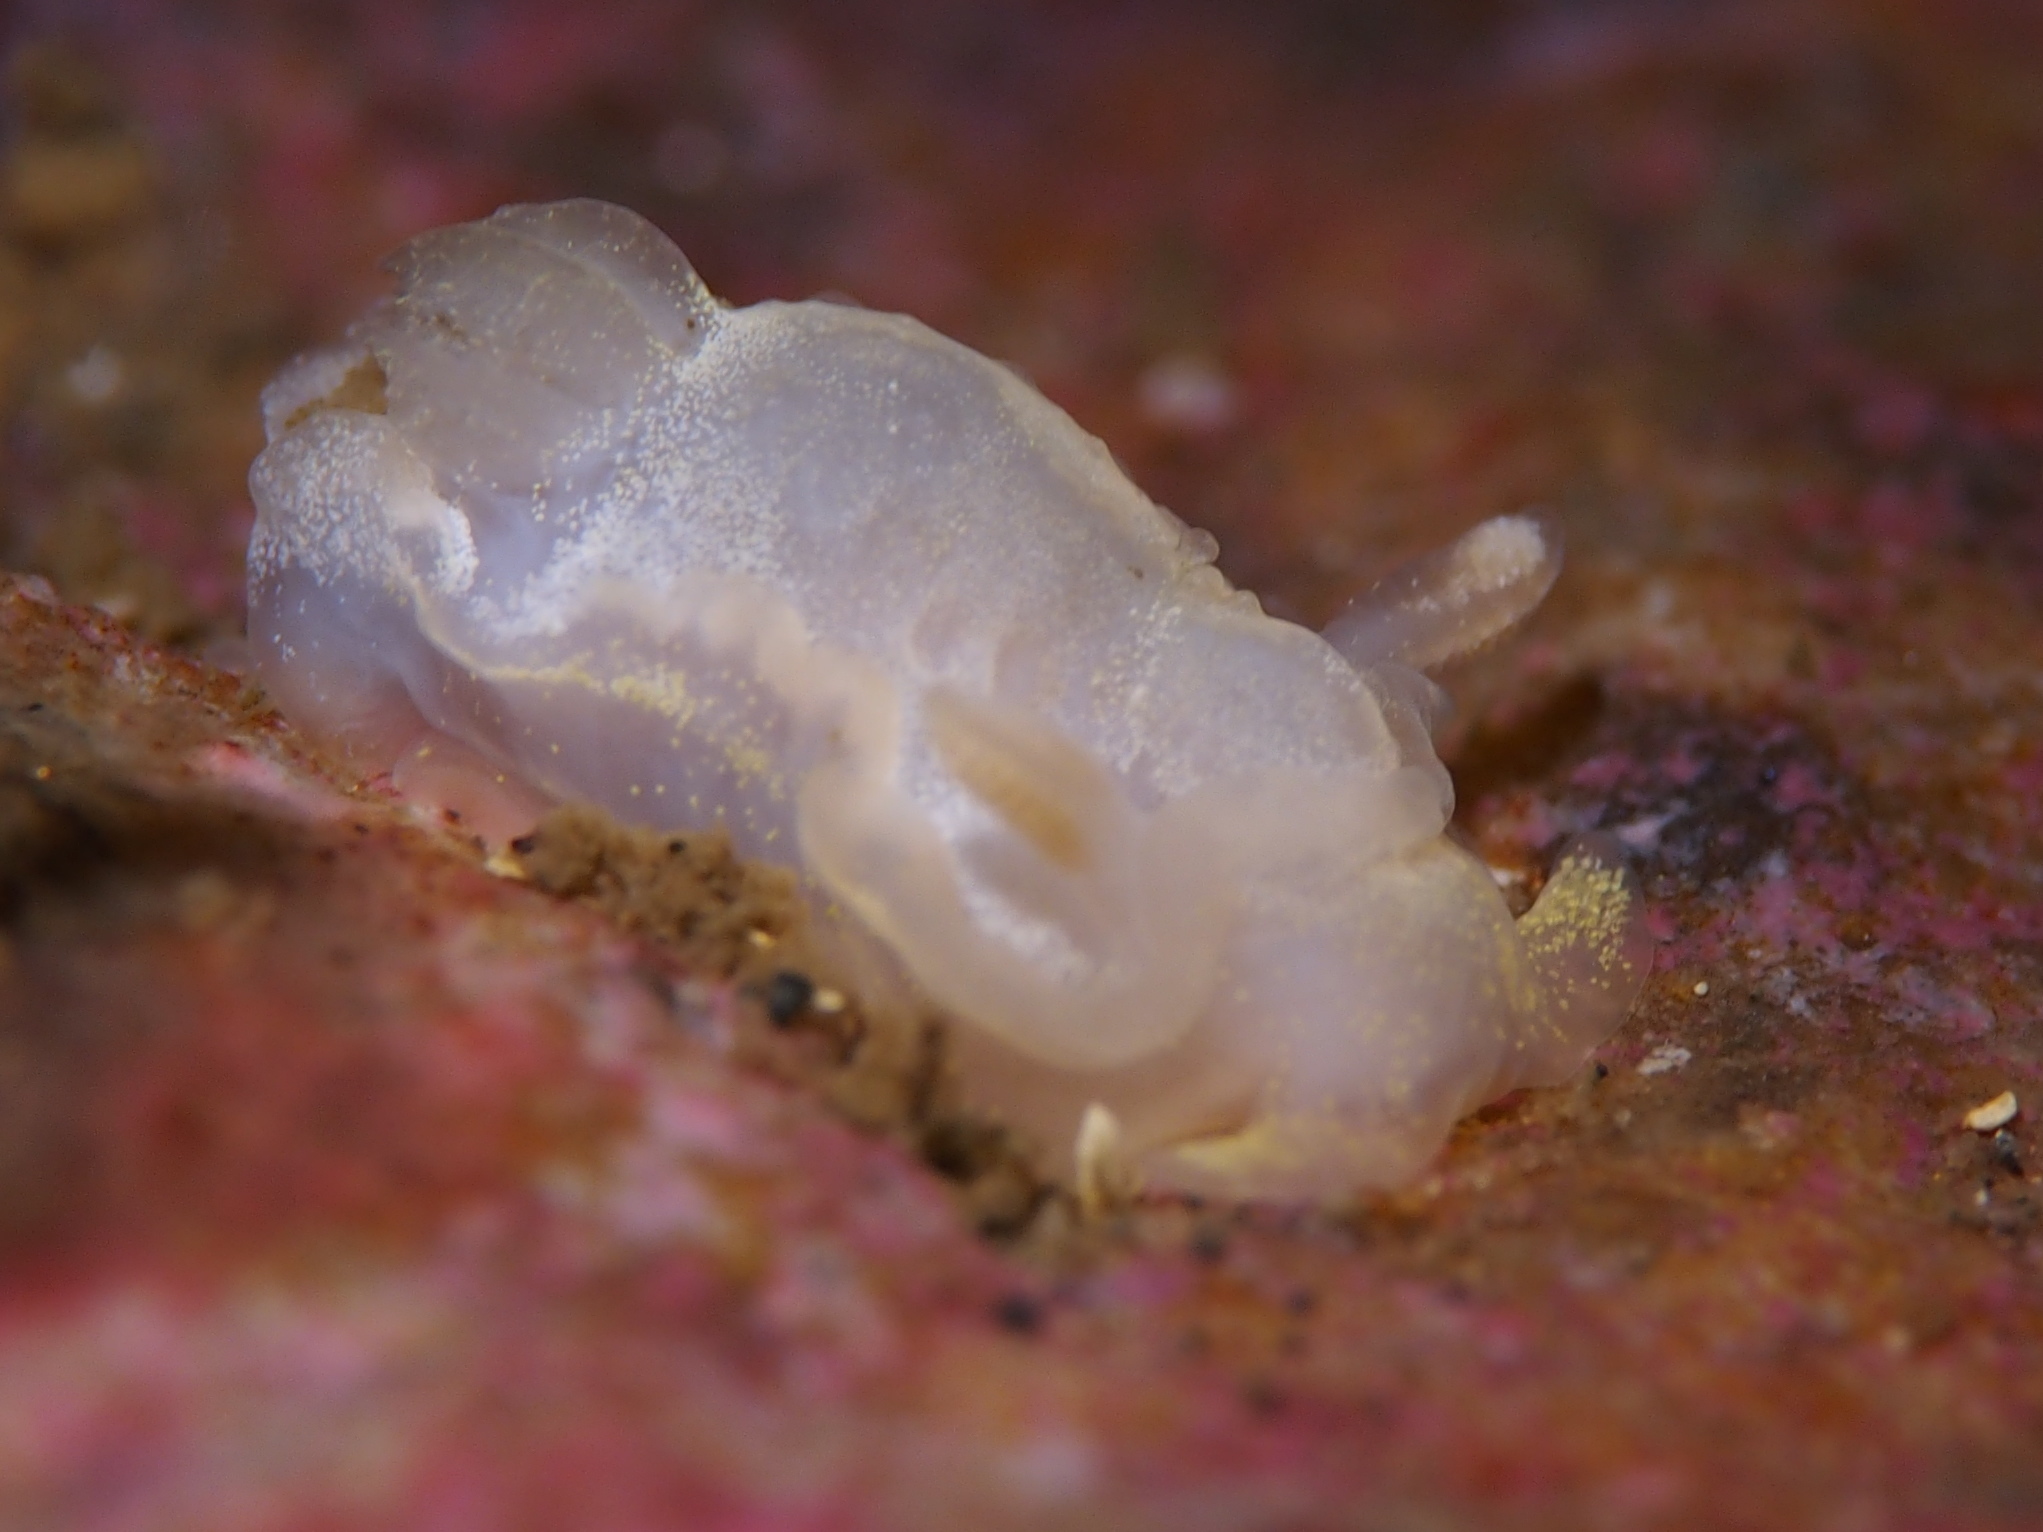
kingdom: Animalia
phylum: Mollusca
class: Gastropoda
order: Nudibranchia
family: Goniodorididae
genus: Okenia
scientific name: Okenia
